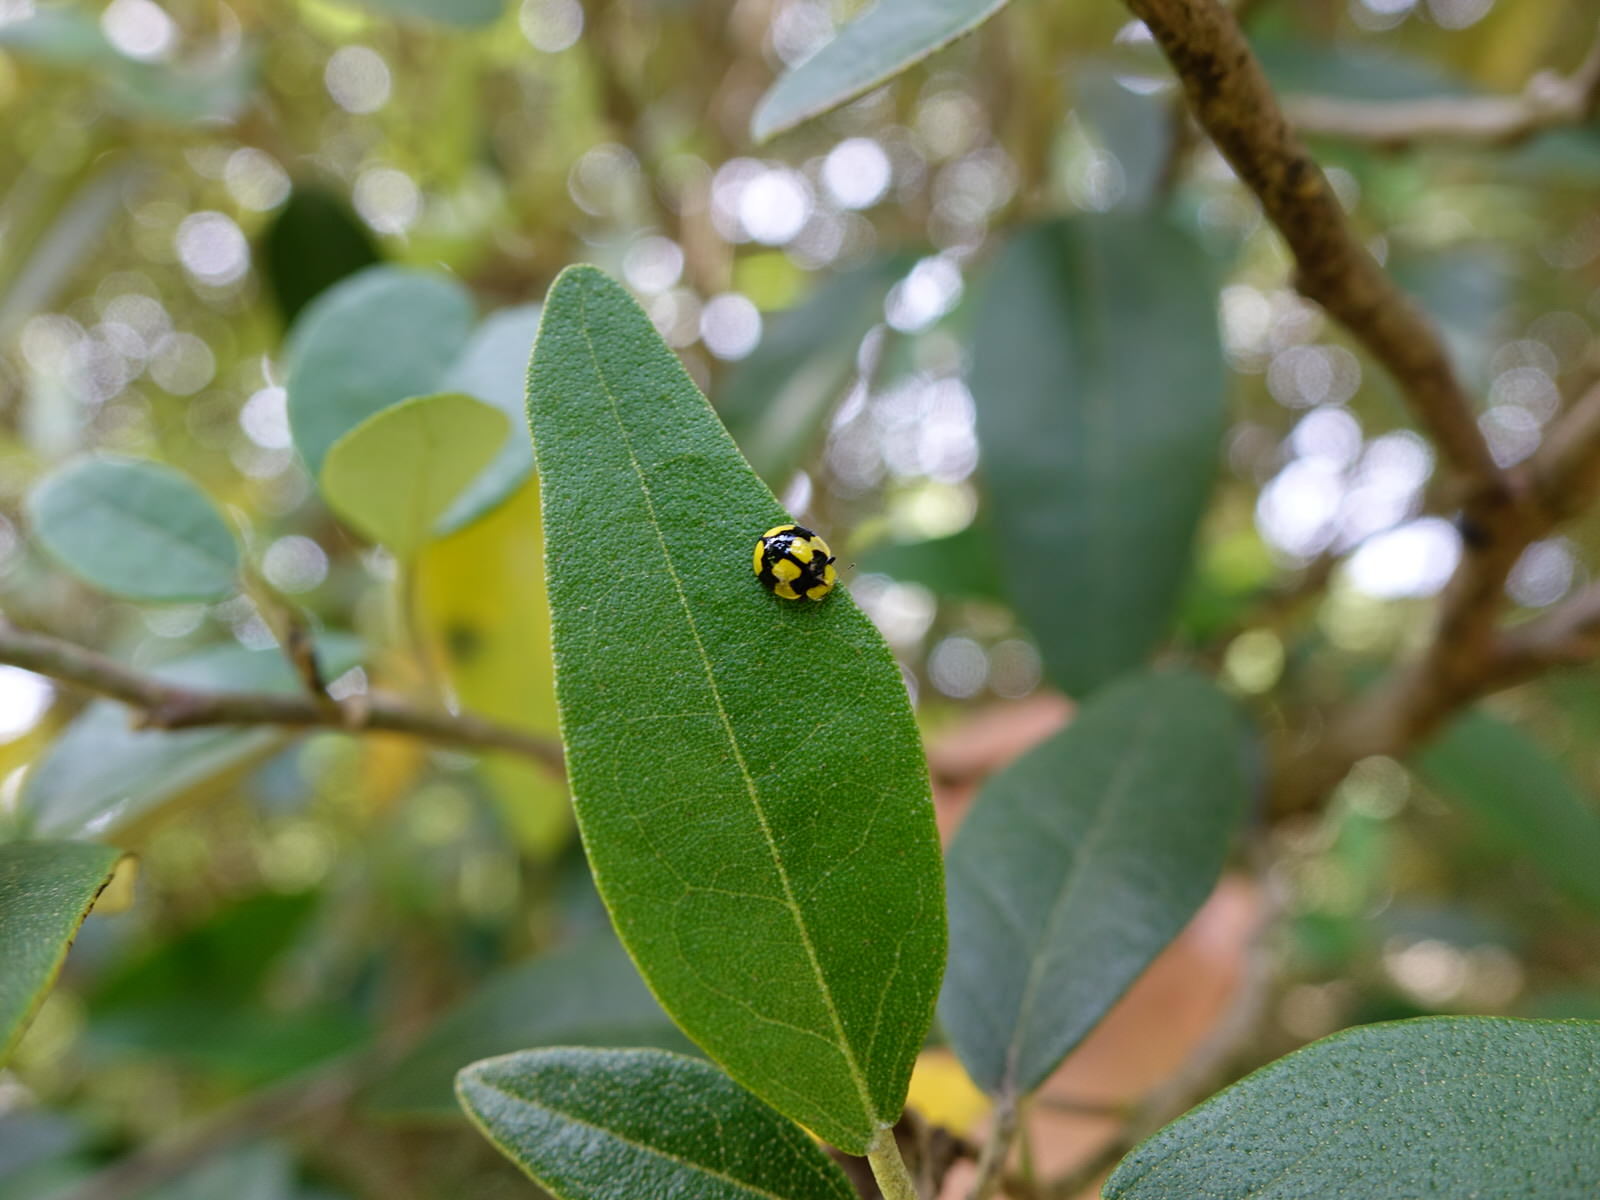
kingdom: Animalia
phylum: Arthropoda
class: Insecta
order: Coleoptera
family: Coccinellidae
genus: Illeis
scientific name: Illeis galbula
